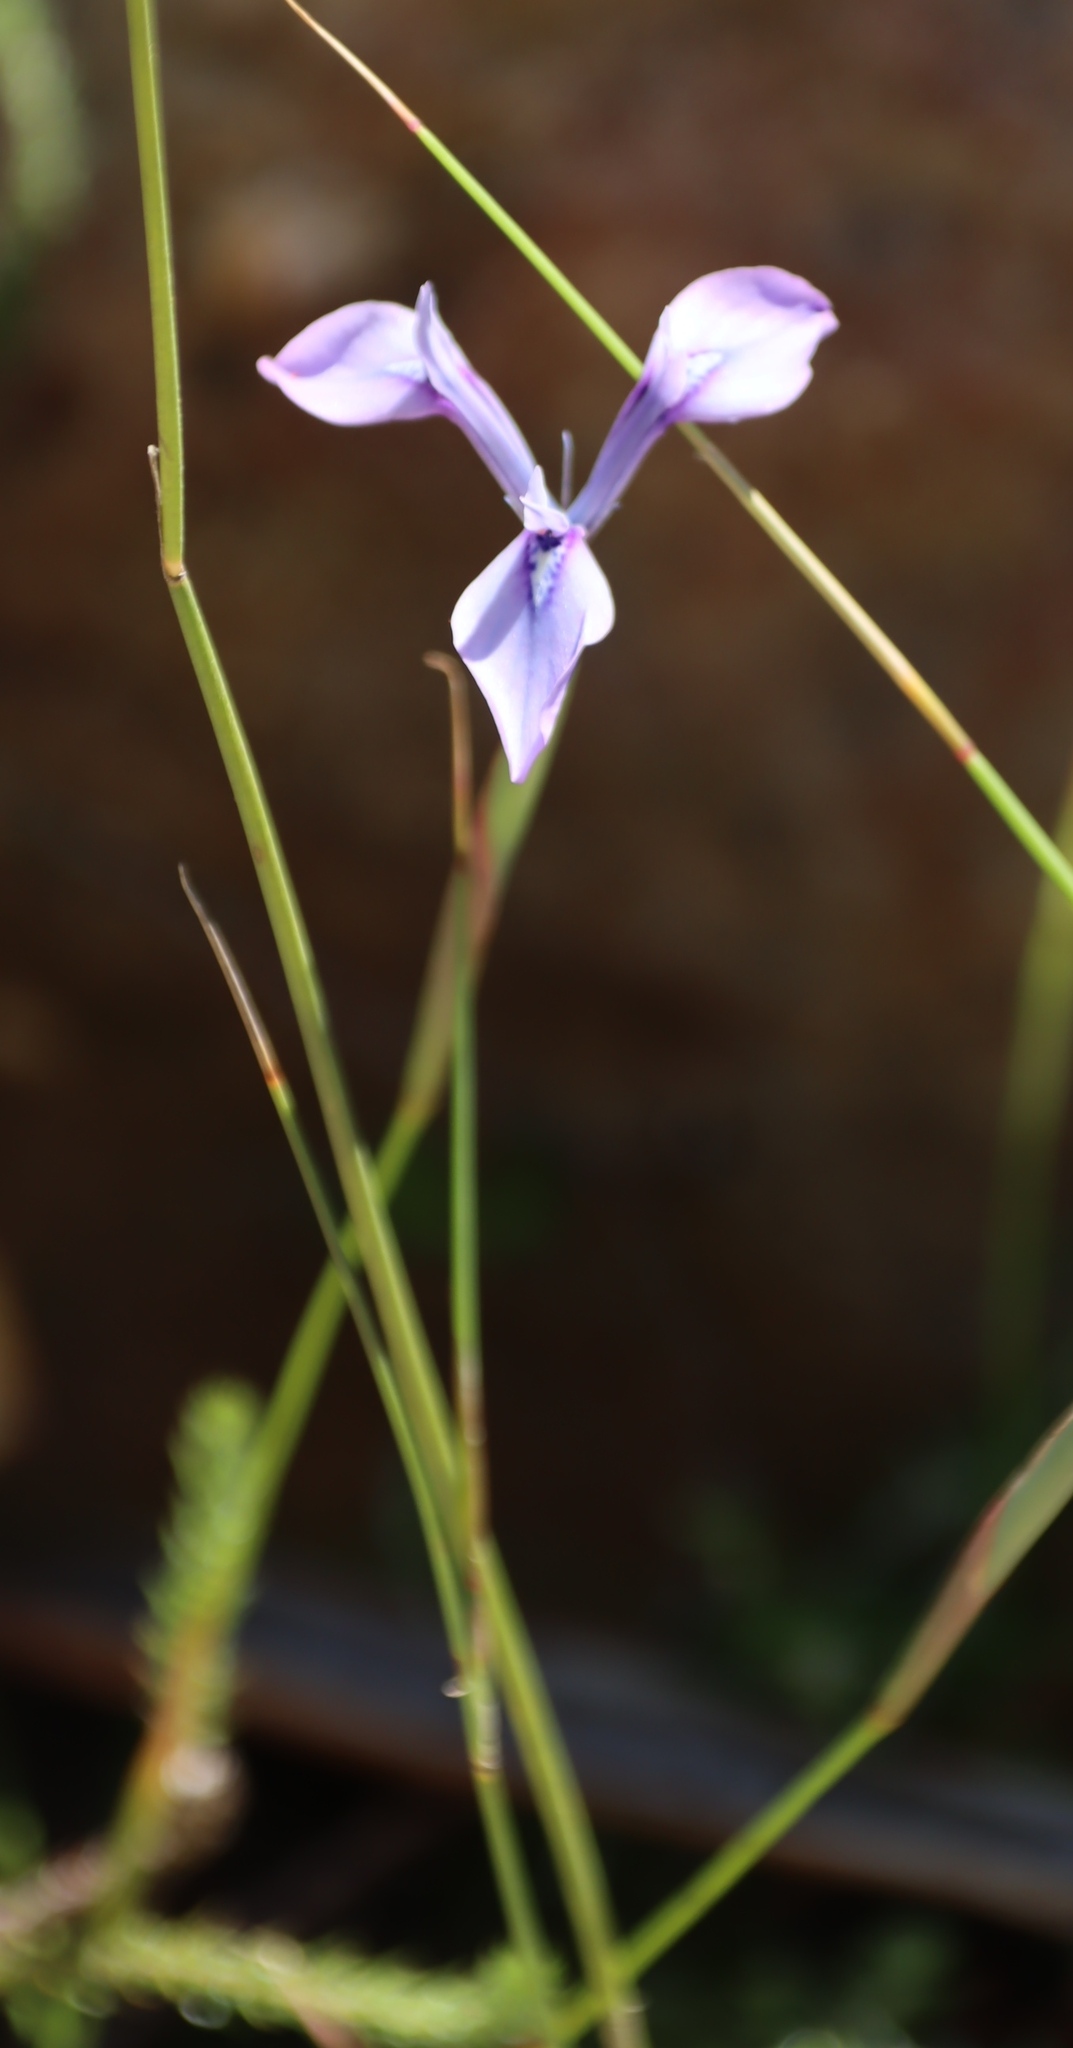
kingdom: Plantae
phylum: Tracheophyta
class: Liliopsida
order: Asparagales
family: Iridaceae
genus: Moraea
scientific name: Moraea tripetala
